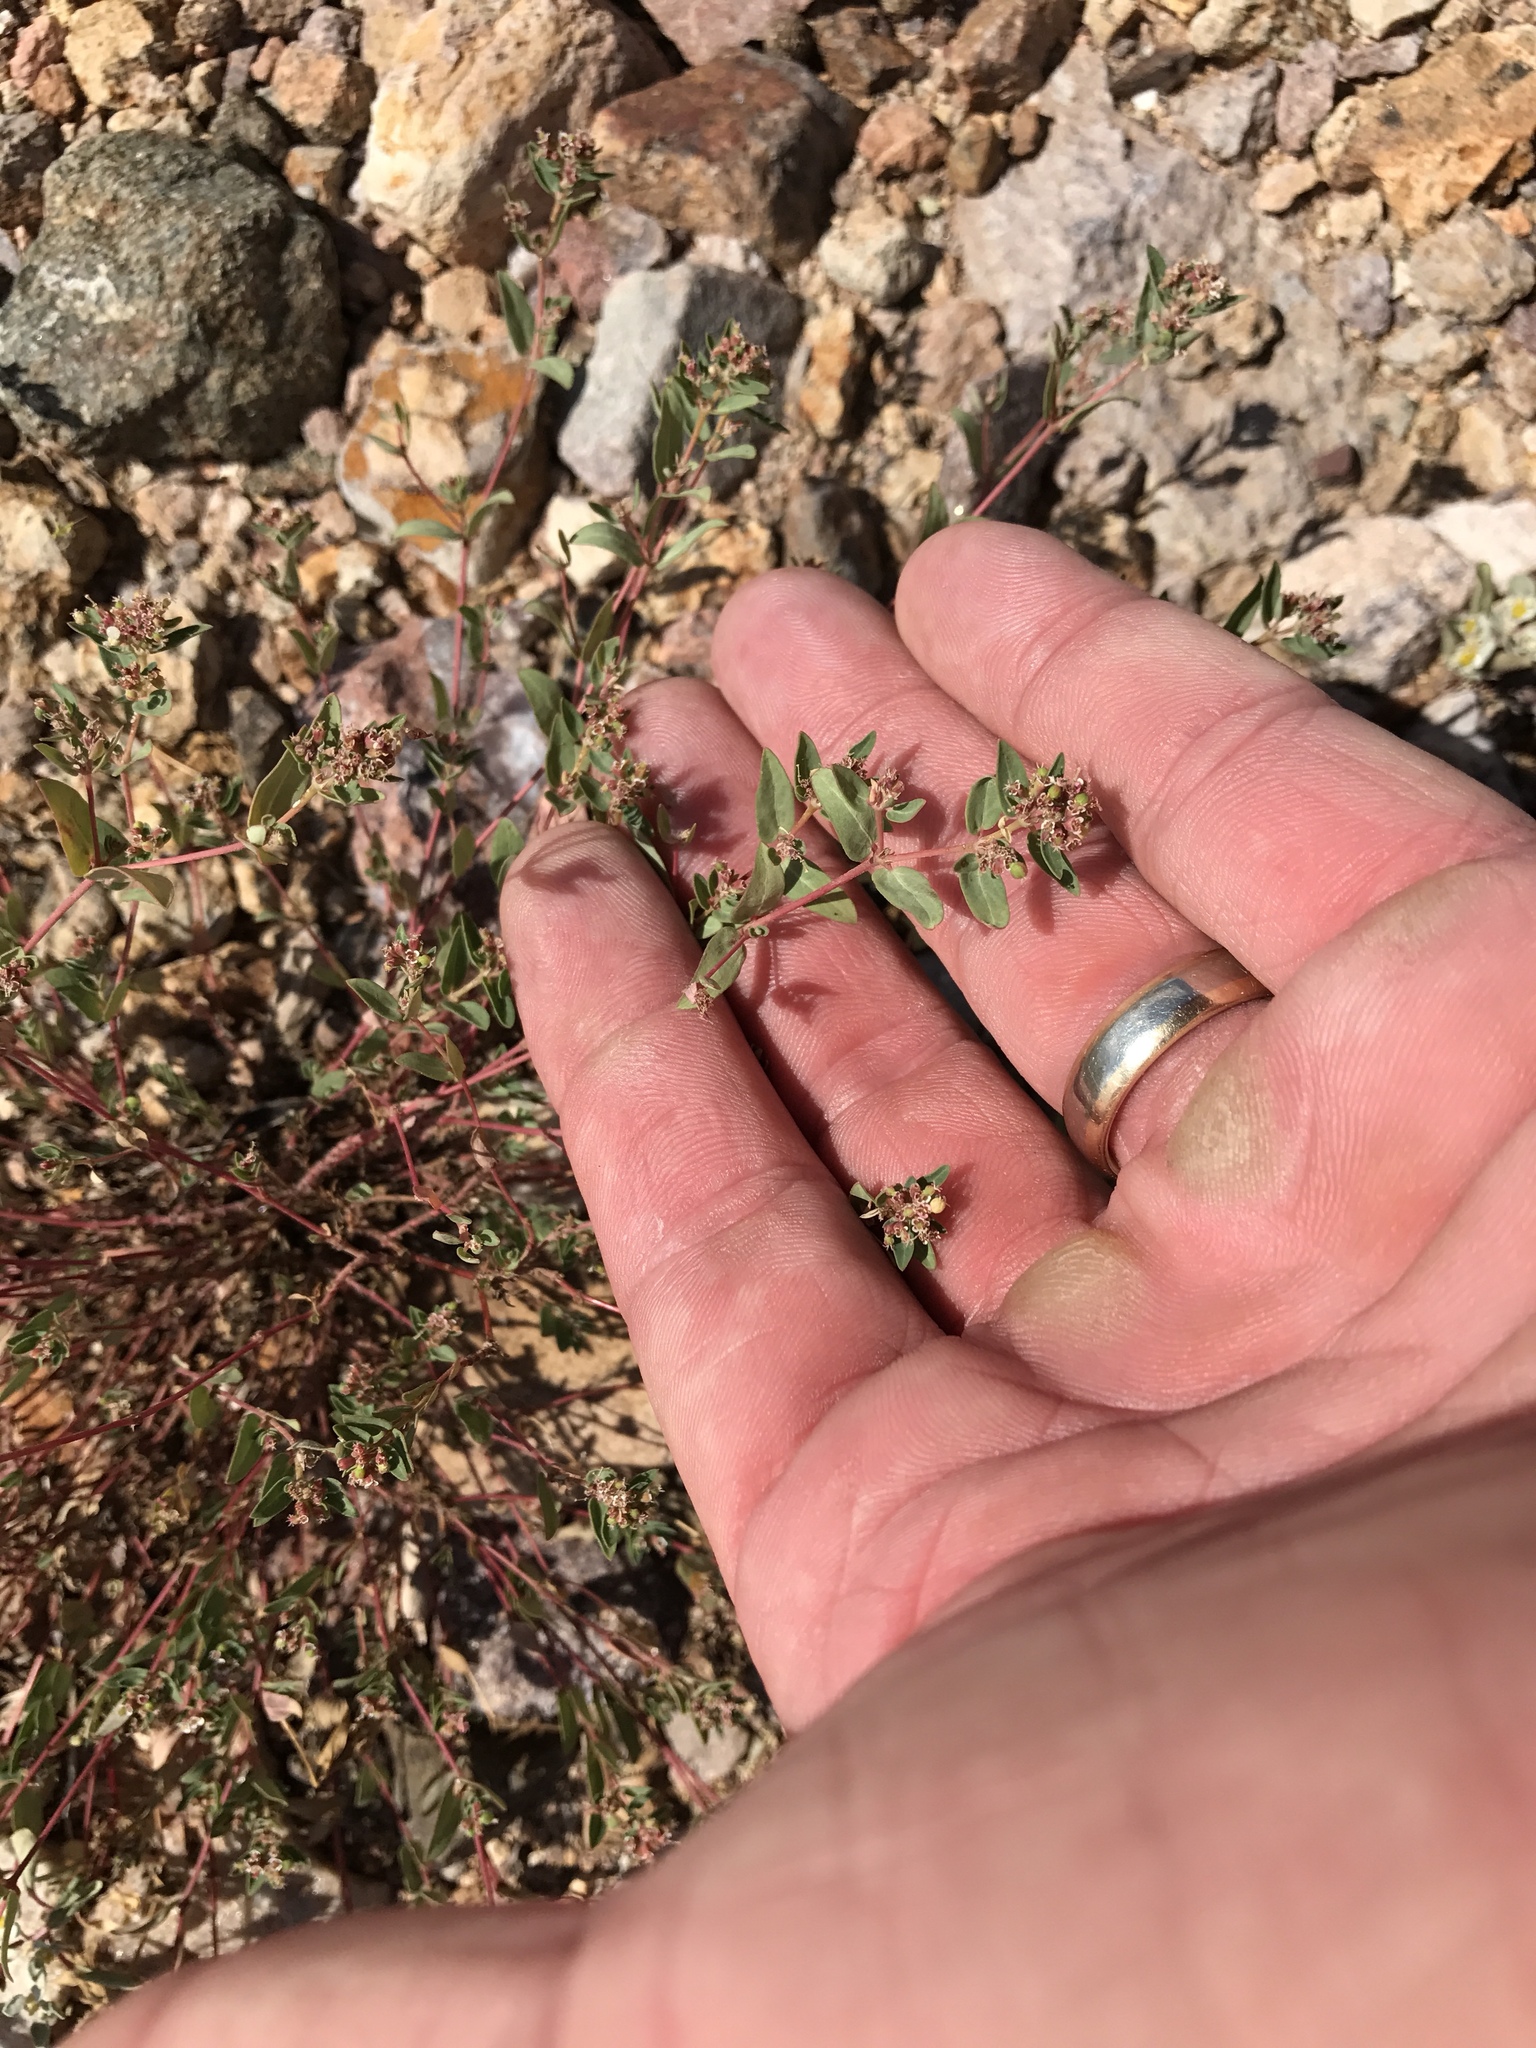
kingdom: Plantae
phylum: Tracheophyta
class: Magnoliopsida
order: Malpighiales
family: Euphorbiaceae
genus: Euphorbia
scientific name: Euphorbia capitellata
